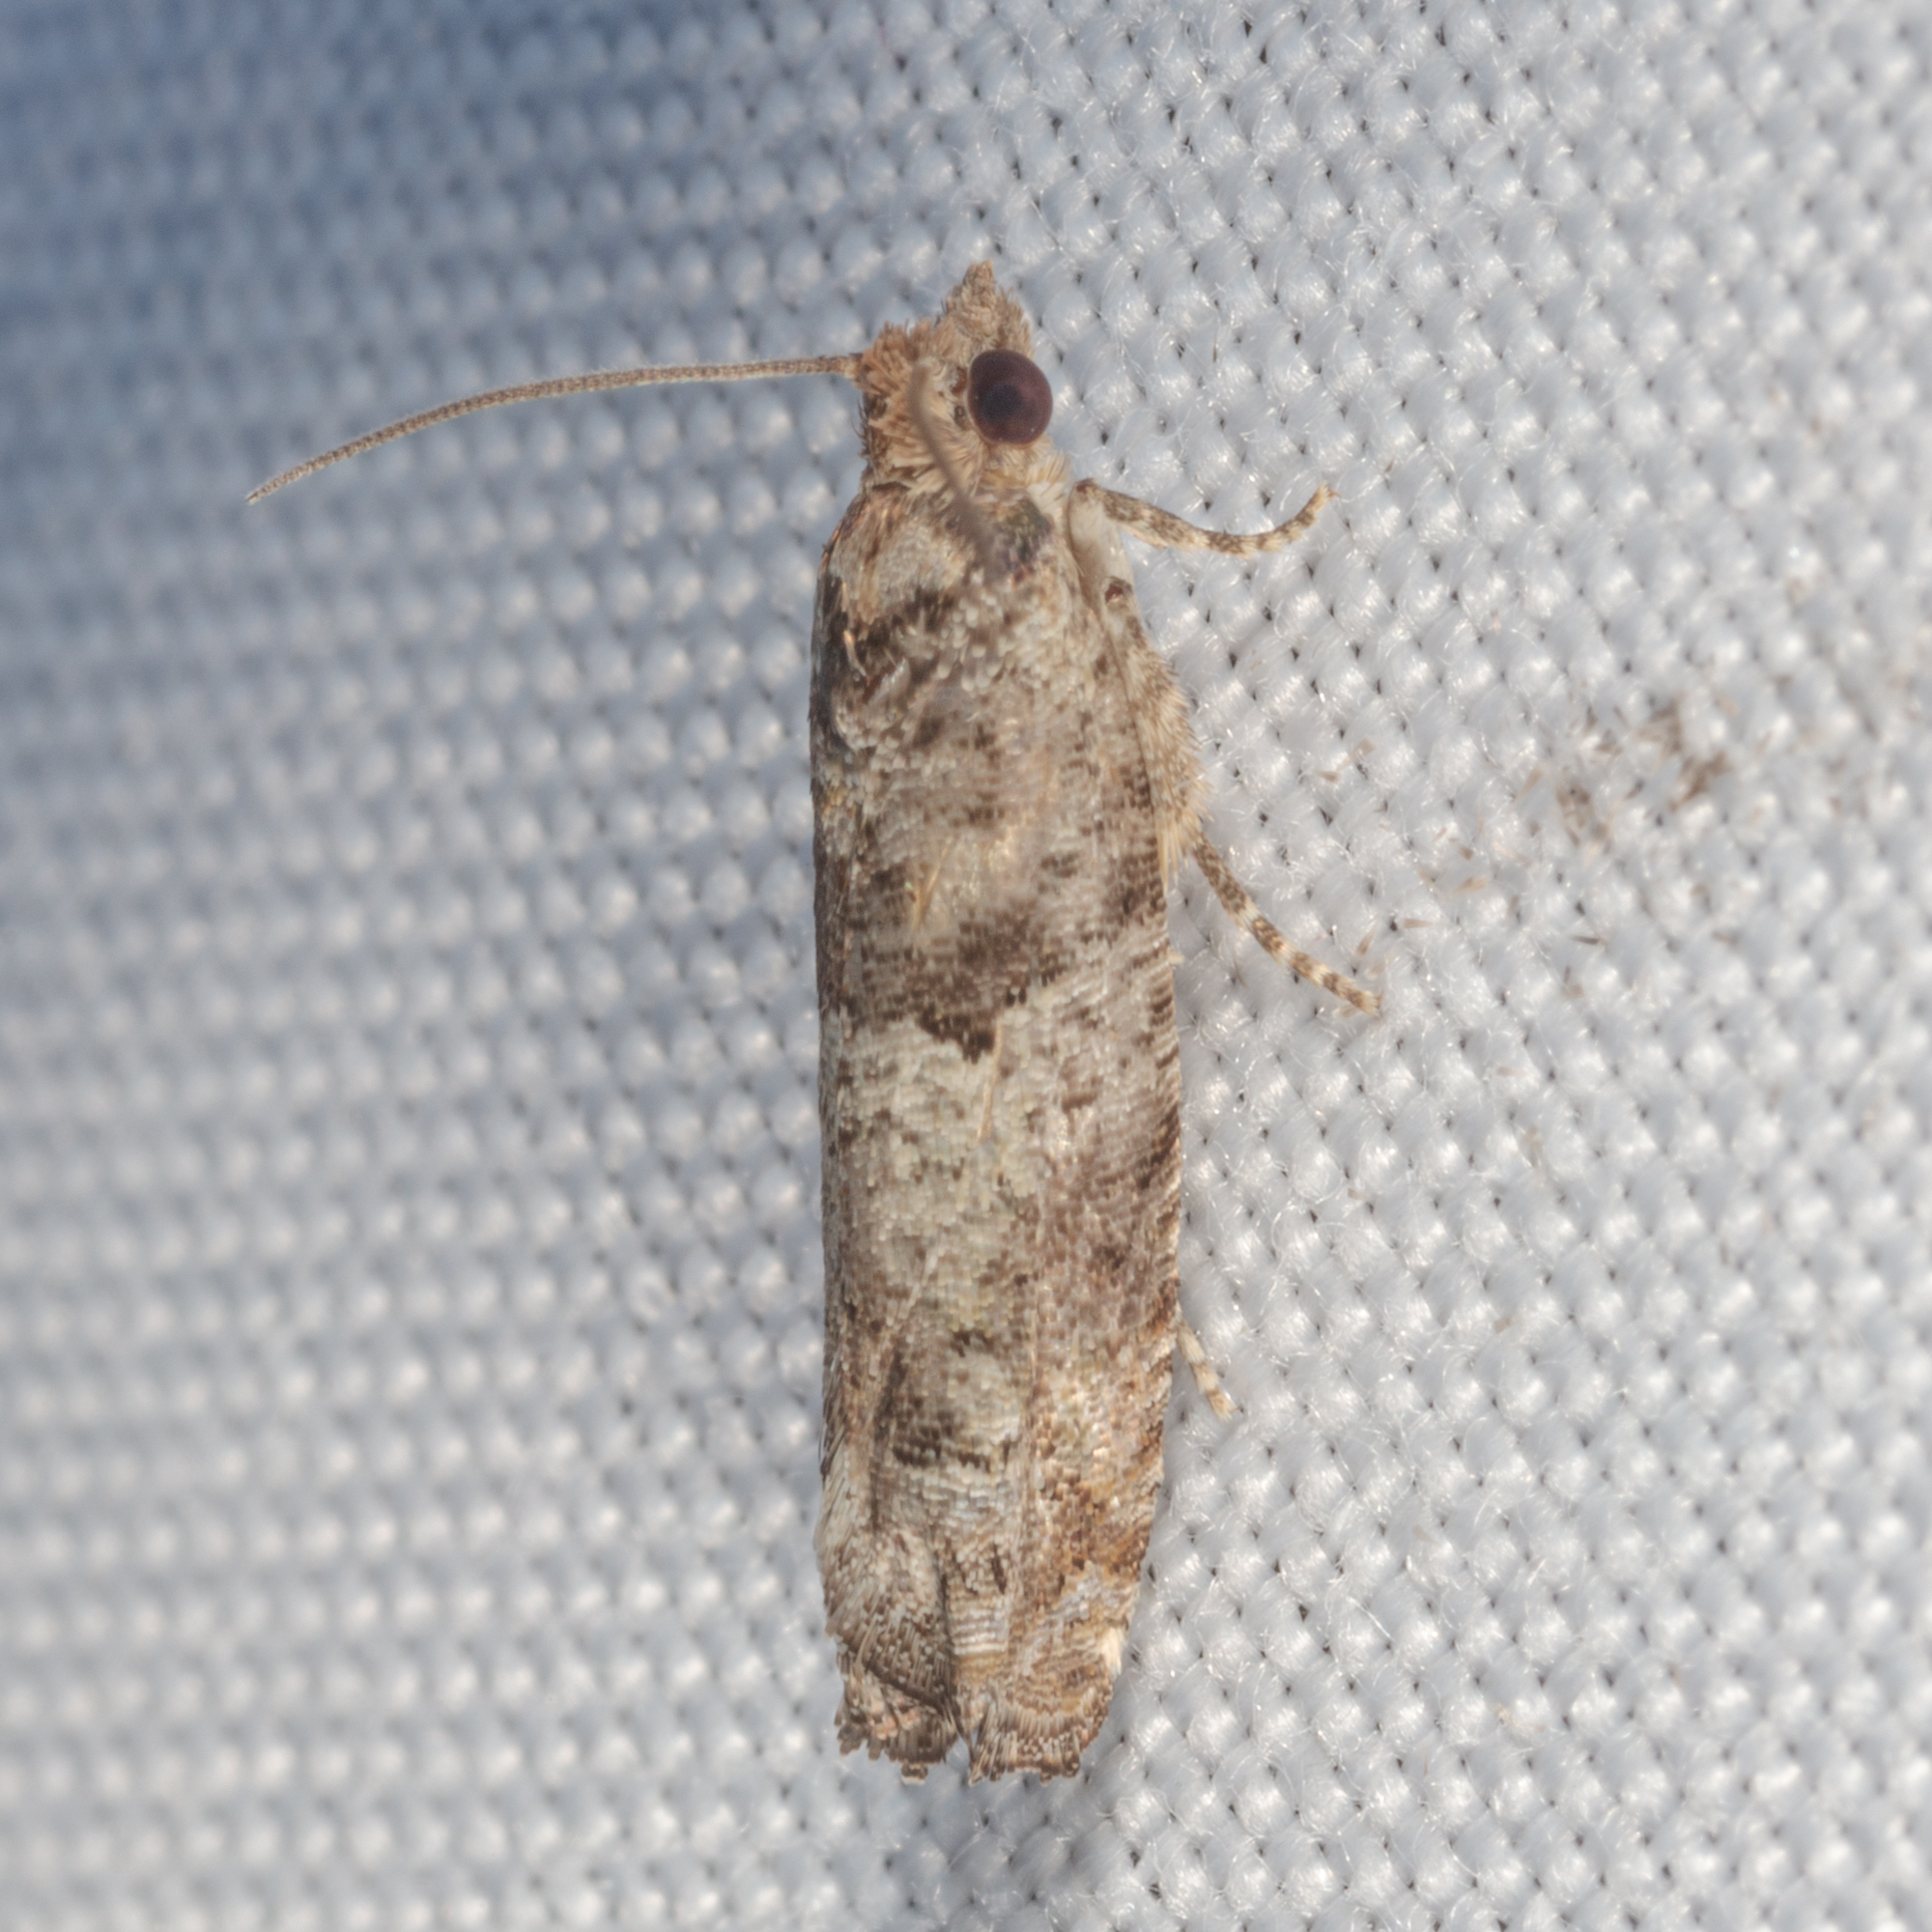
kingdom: Animalia
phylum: Arthropoda
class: Insecta
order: Lepidoptera
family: Tortricidae
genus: Pseudexentera
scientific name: Pseudexentera knudsoni
